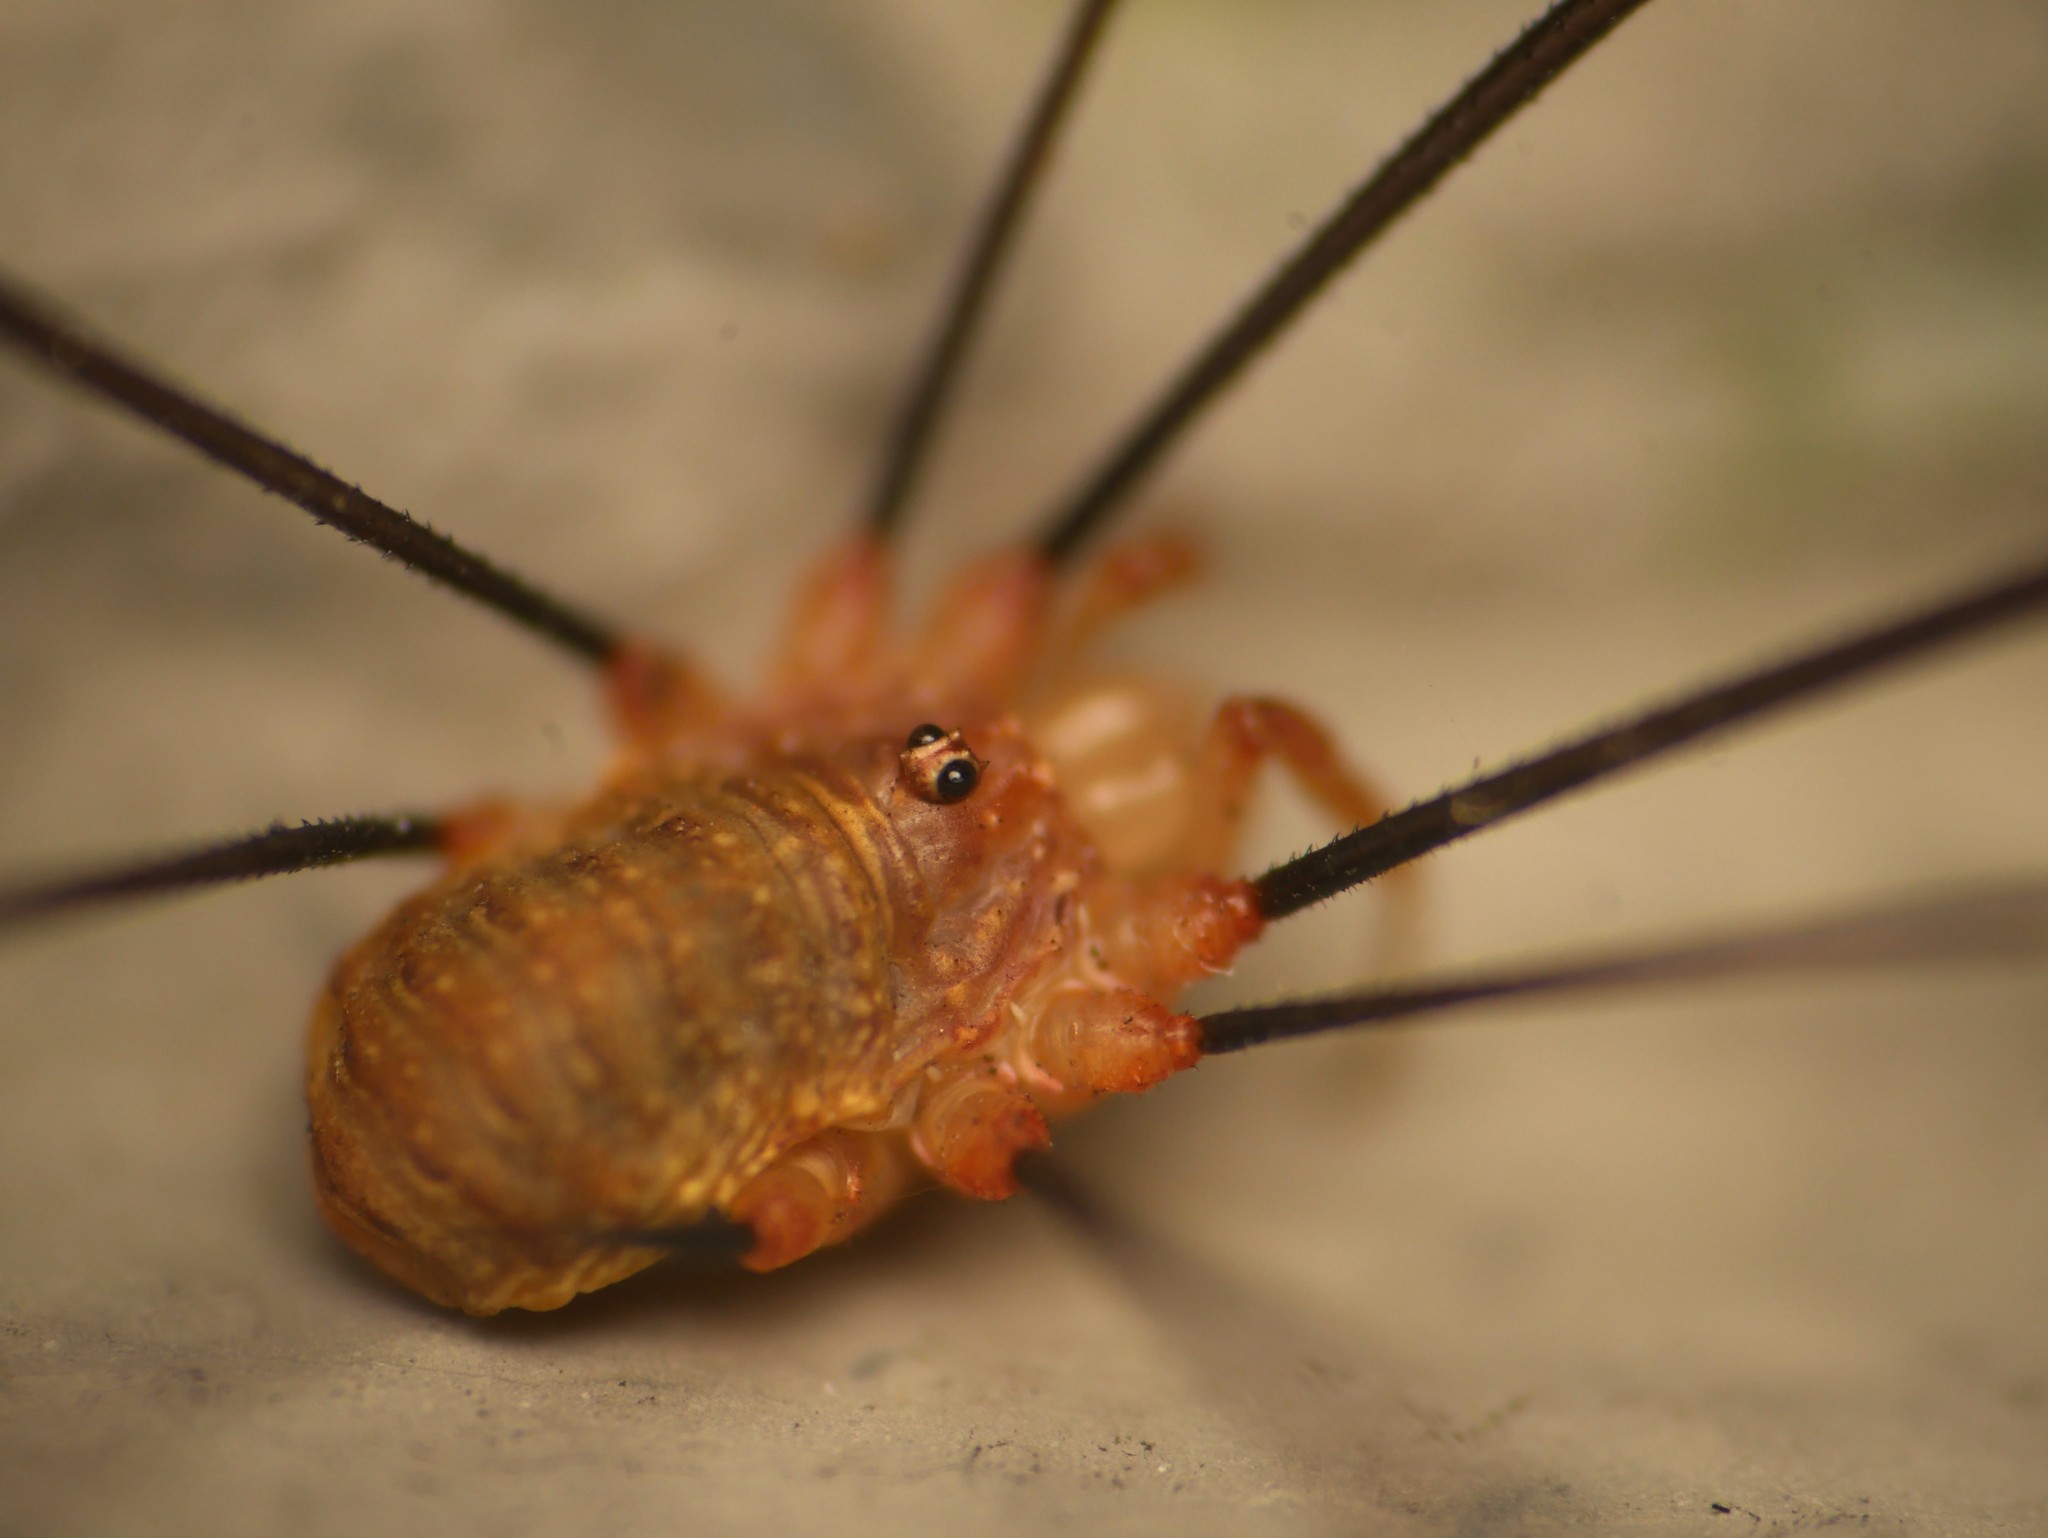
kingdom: Animalia
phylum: Arthropoda
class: Arachnida
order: Opiliones
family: Phalangiidae
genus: Opilio
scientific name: Opilio canestrinii
